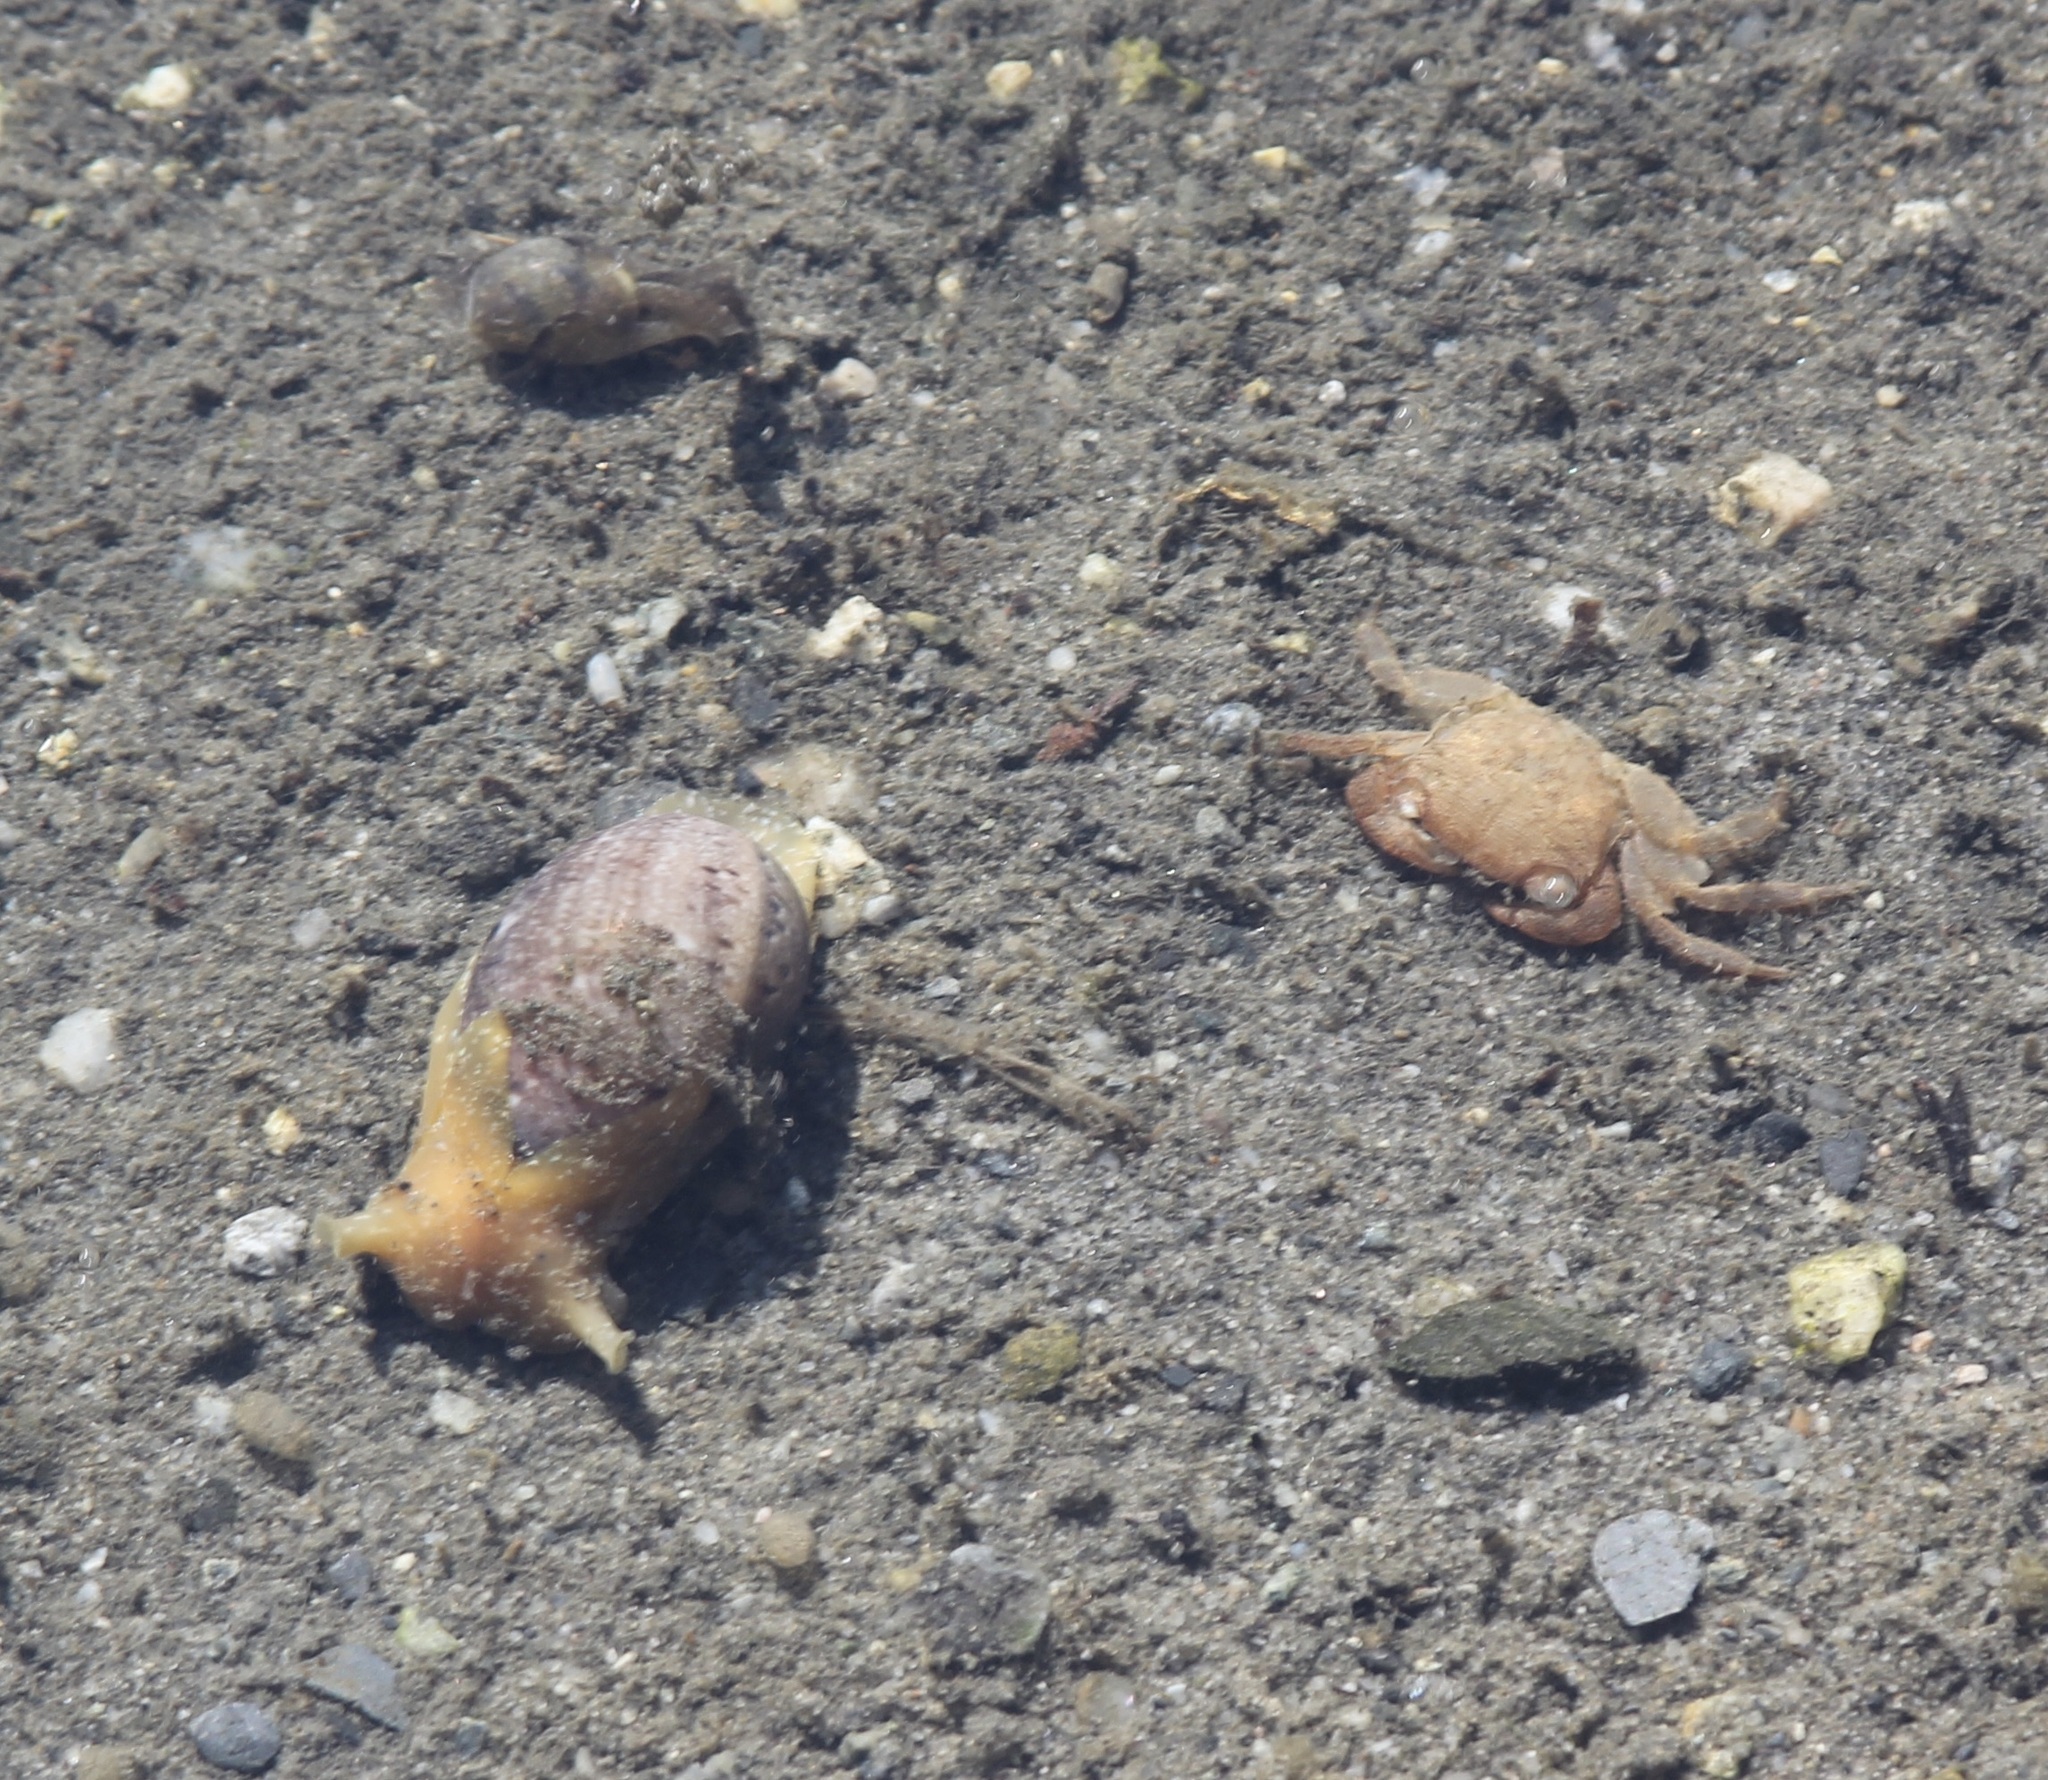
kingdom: Animalia
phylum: Arthropoda
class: Malacostraca
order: Decapoda
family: Grapsidae
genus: Pachygrapsus
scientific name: Pachygrapsus crassipes
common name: Striped shore crab
